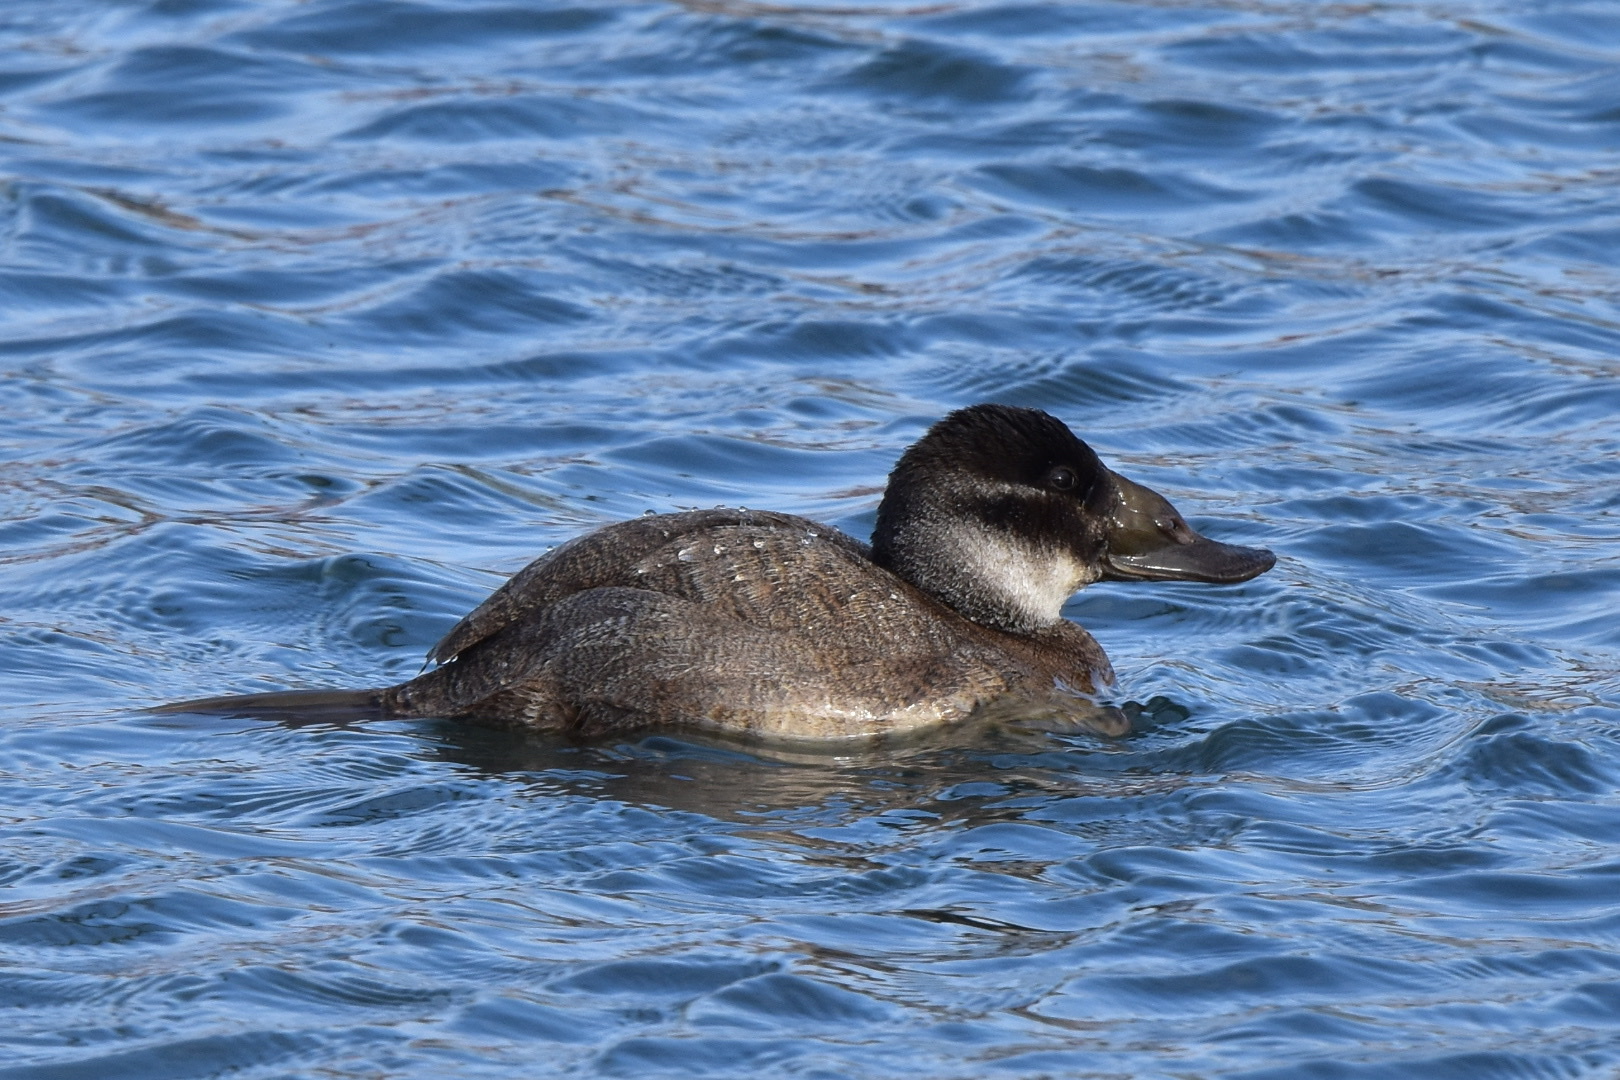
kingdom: Animalia
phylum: Chordata
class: Aves
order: Anseriformes
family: Anatidae
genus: Oxyura
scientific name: Oxyura leucocephala
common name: White-headed duck
